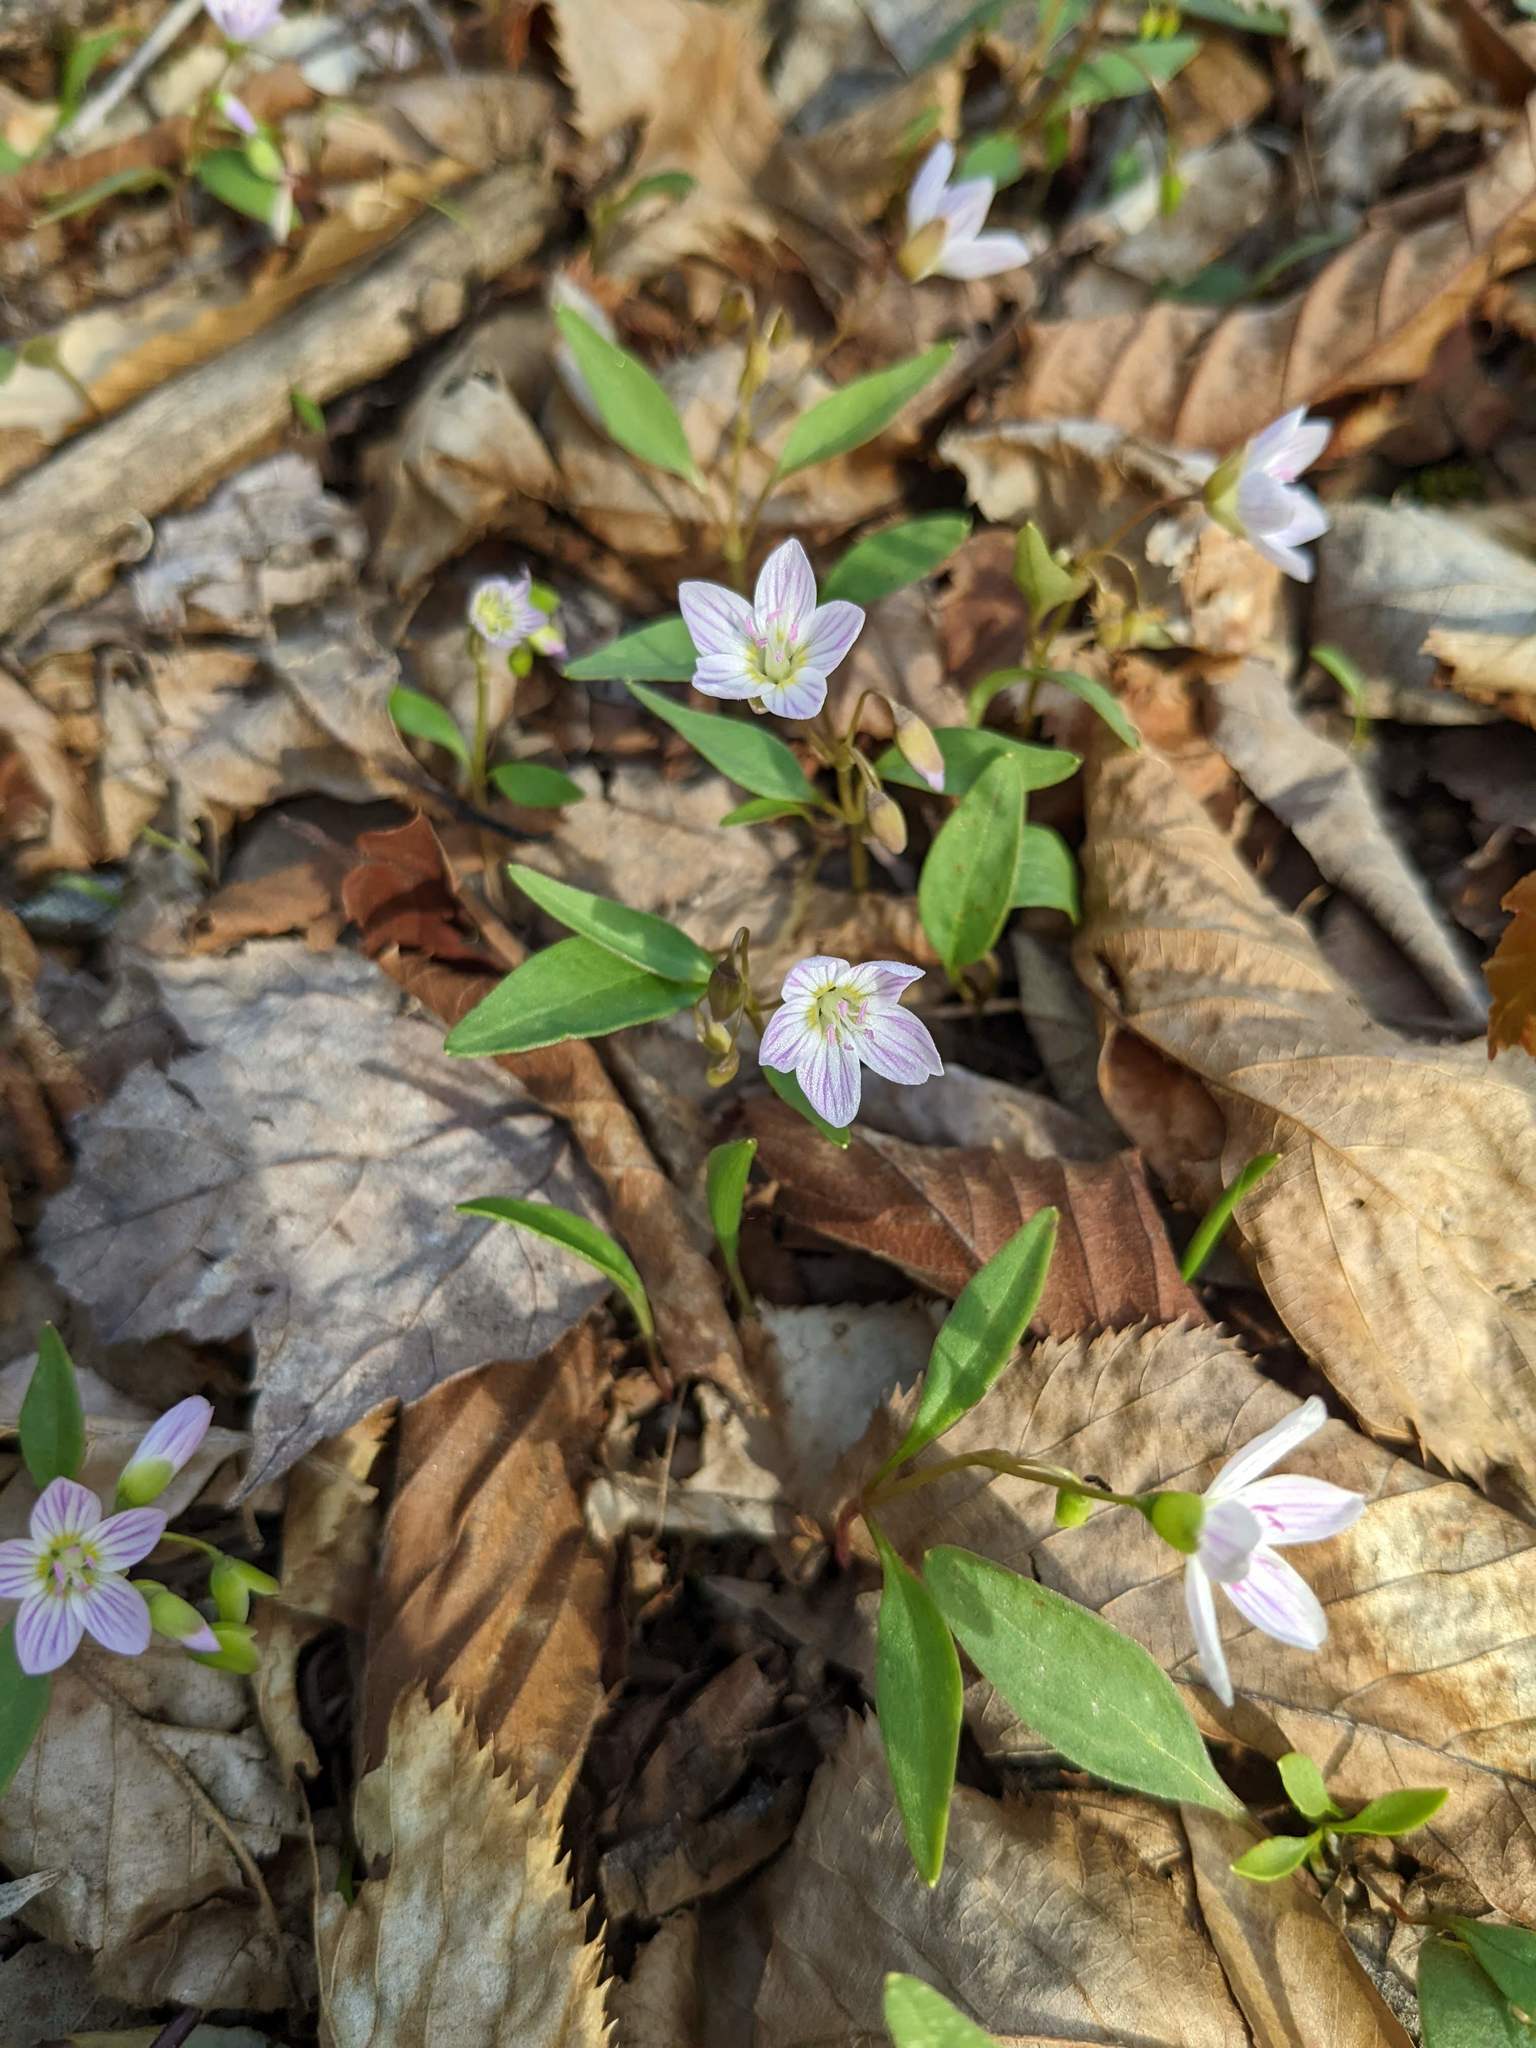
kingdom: Plantae
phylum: Tracheophyta
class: Magnoliopsida
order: Caryophyllales
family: Montiaceae
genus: Claytonia
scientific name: Claytonia caroliniana
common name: Carolina spring beauty
